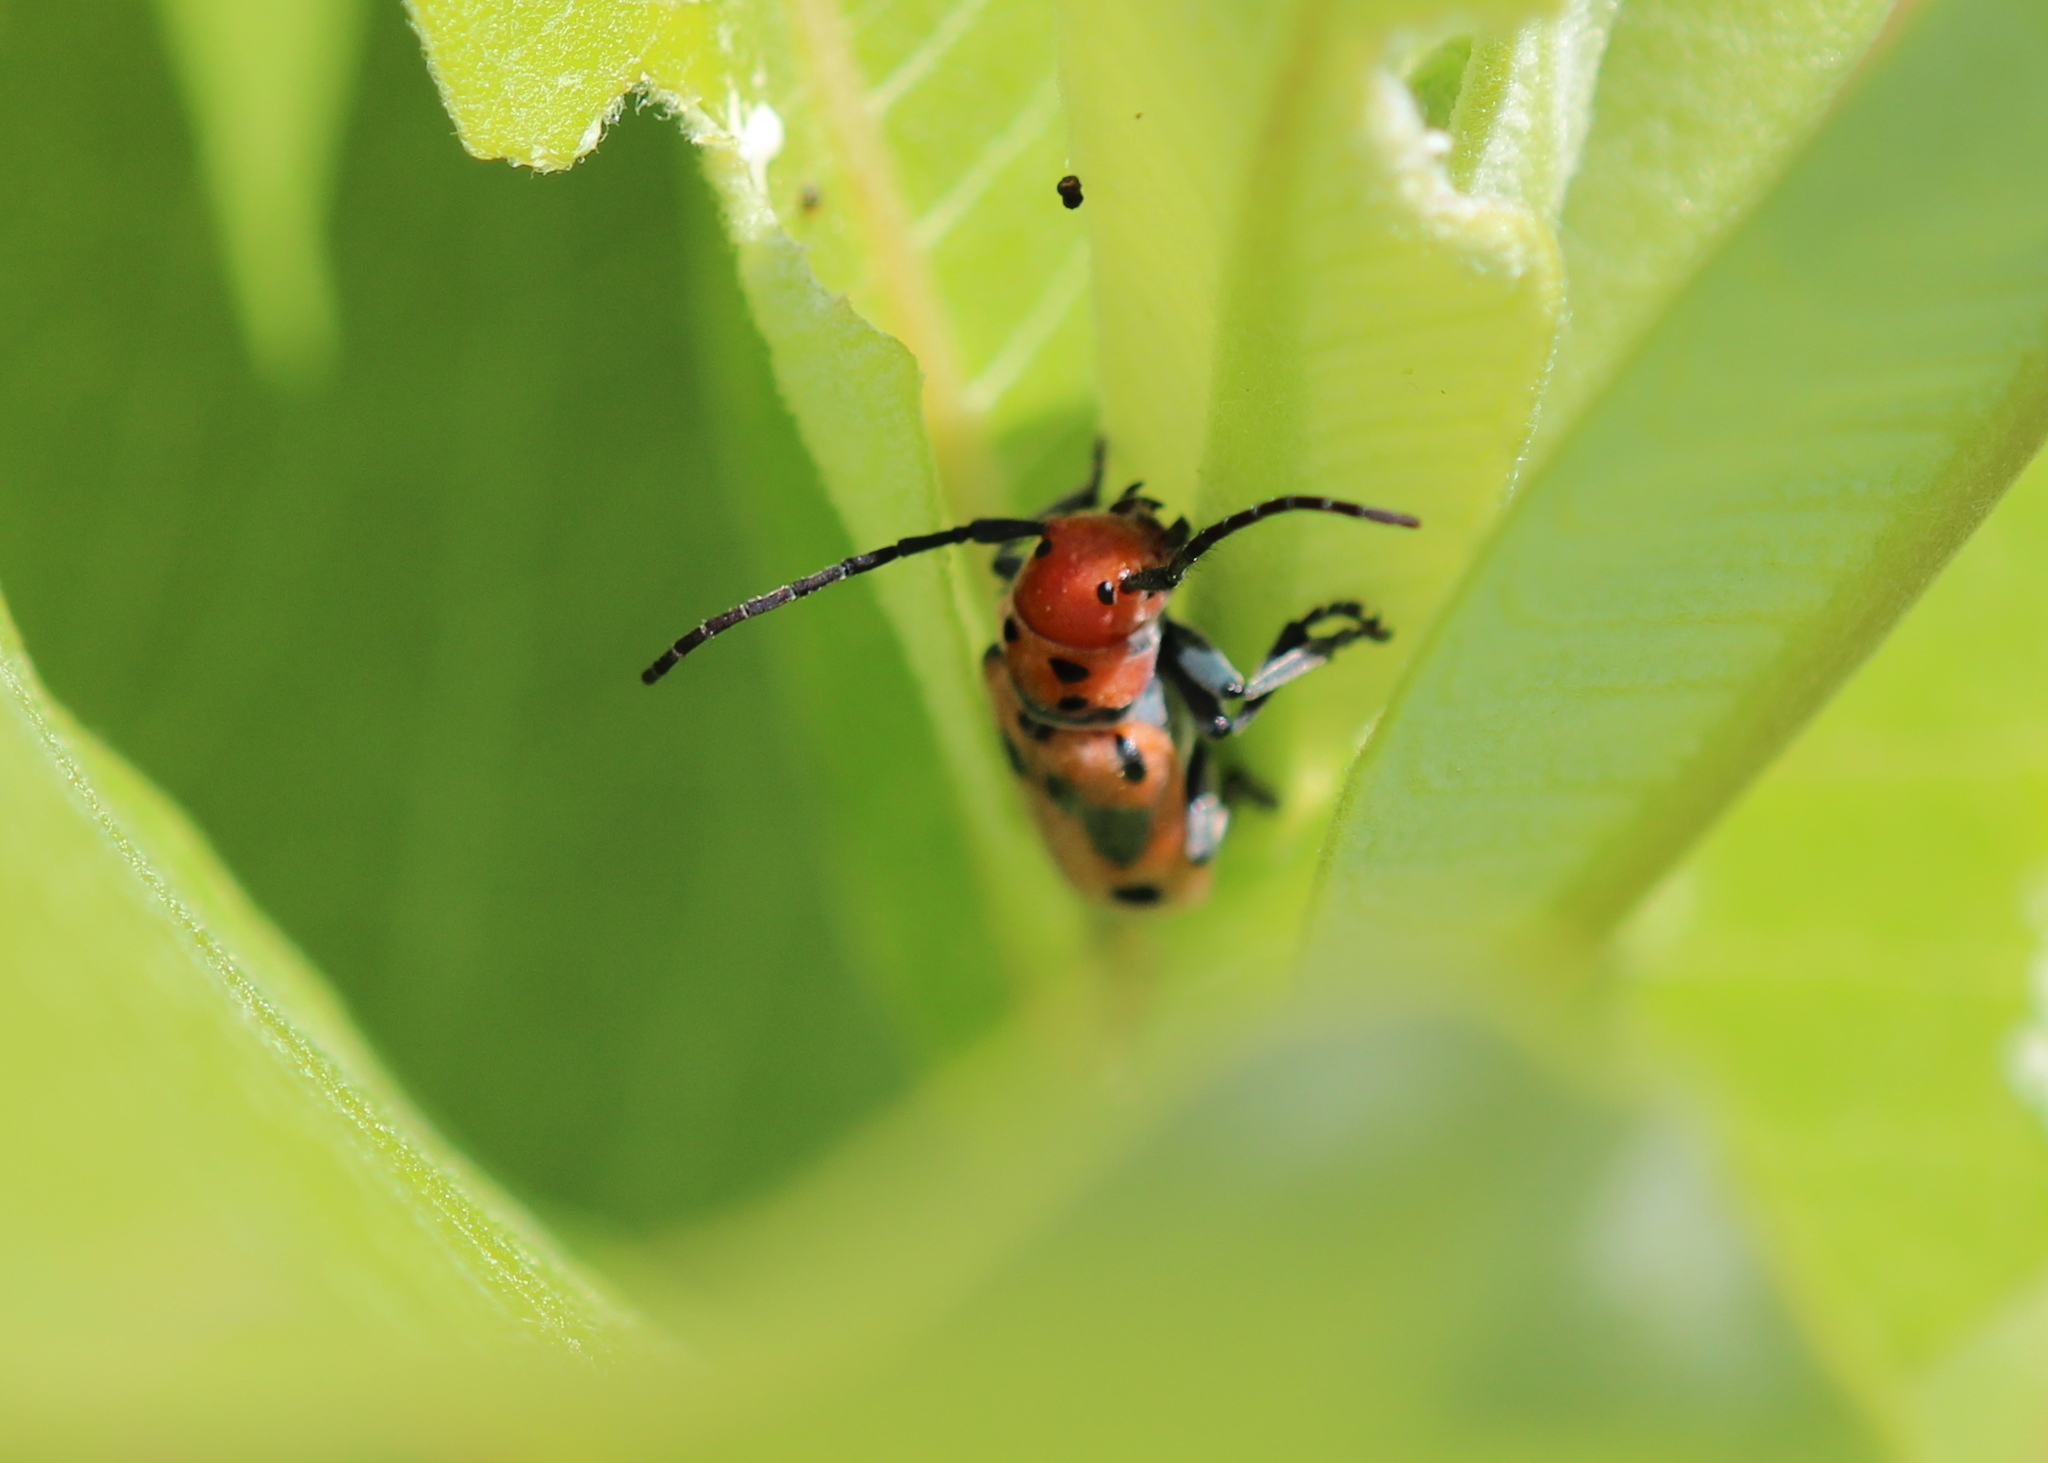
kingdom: Animalia
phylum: Arthropoda
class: Insecta
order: Coleoptera
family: Cerambycidae
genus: Tetraopes
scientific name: Tetraopes tetrophthalmus
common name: Red milkweed beetle
